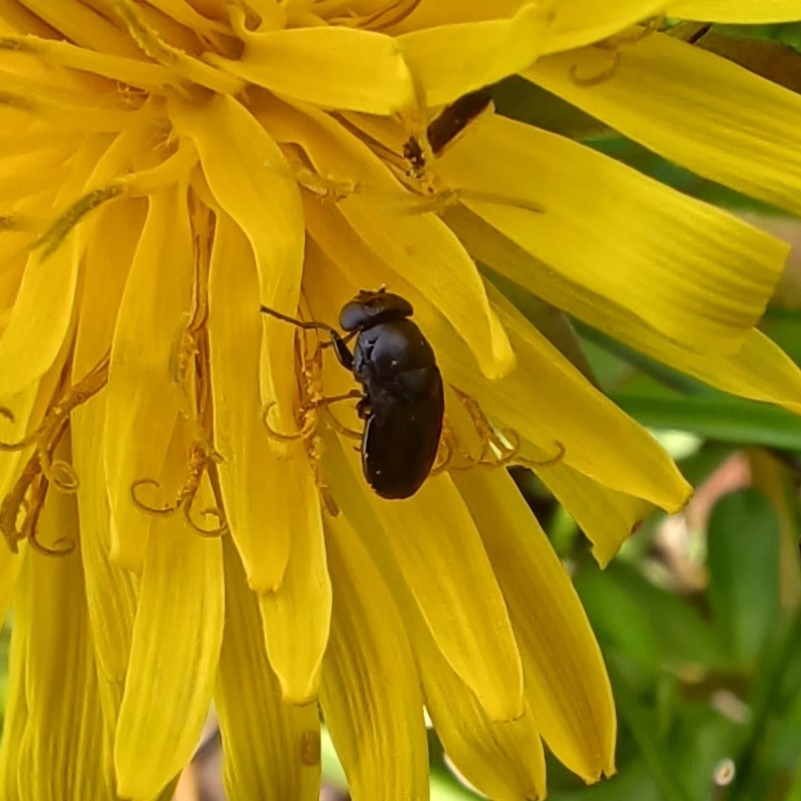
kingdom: Animalia
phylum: Arthropoda
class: Insecta
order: Diptera
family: Ephydridae
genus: Discomyza
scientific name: Discomyza incurva
